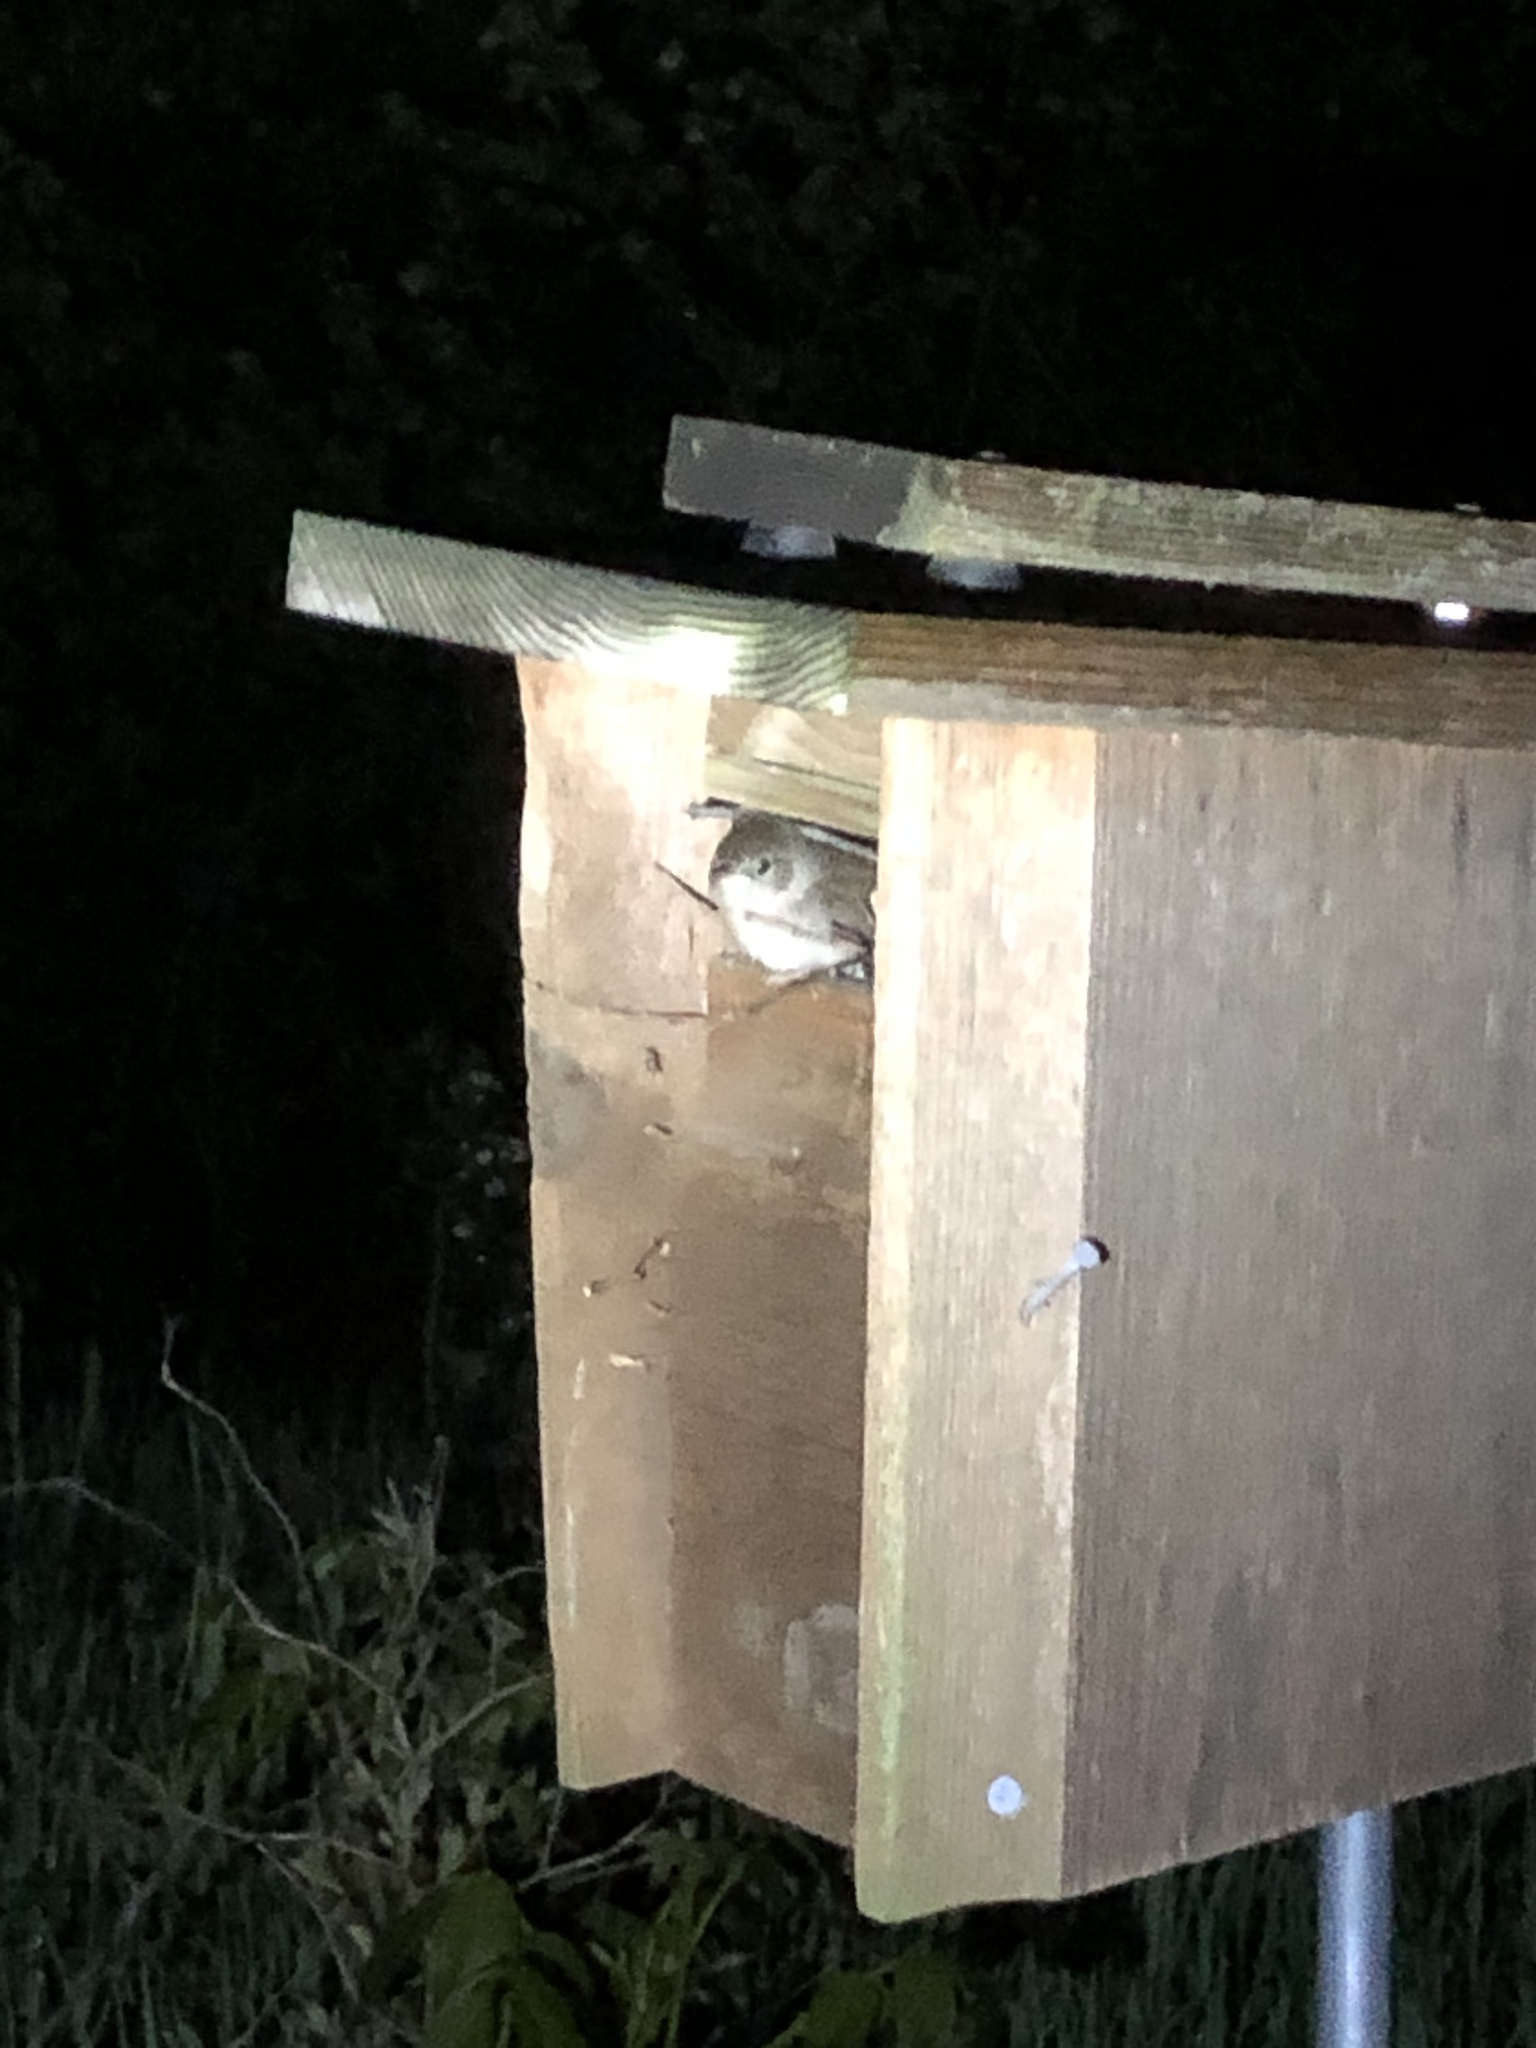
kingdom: Animalia
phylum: Chordata
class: Aves
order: Passeriformes
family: Troglodytidae
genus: Troglodytes
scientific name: Troglodytes aedon
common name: House wren
